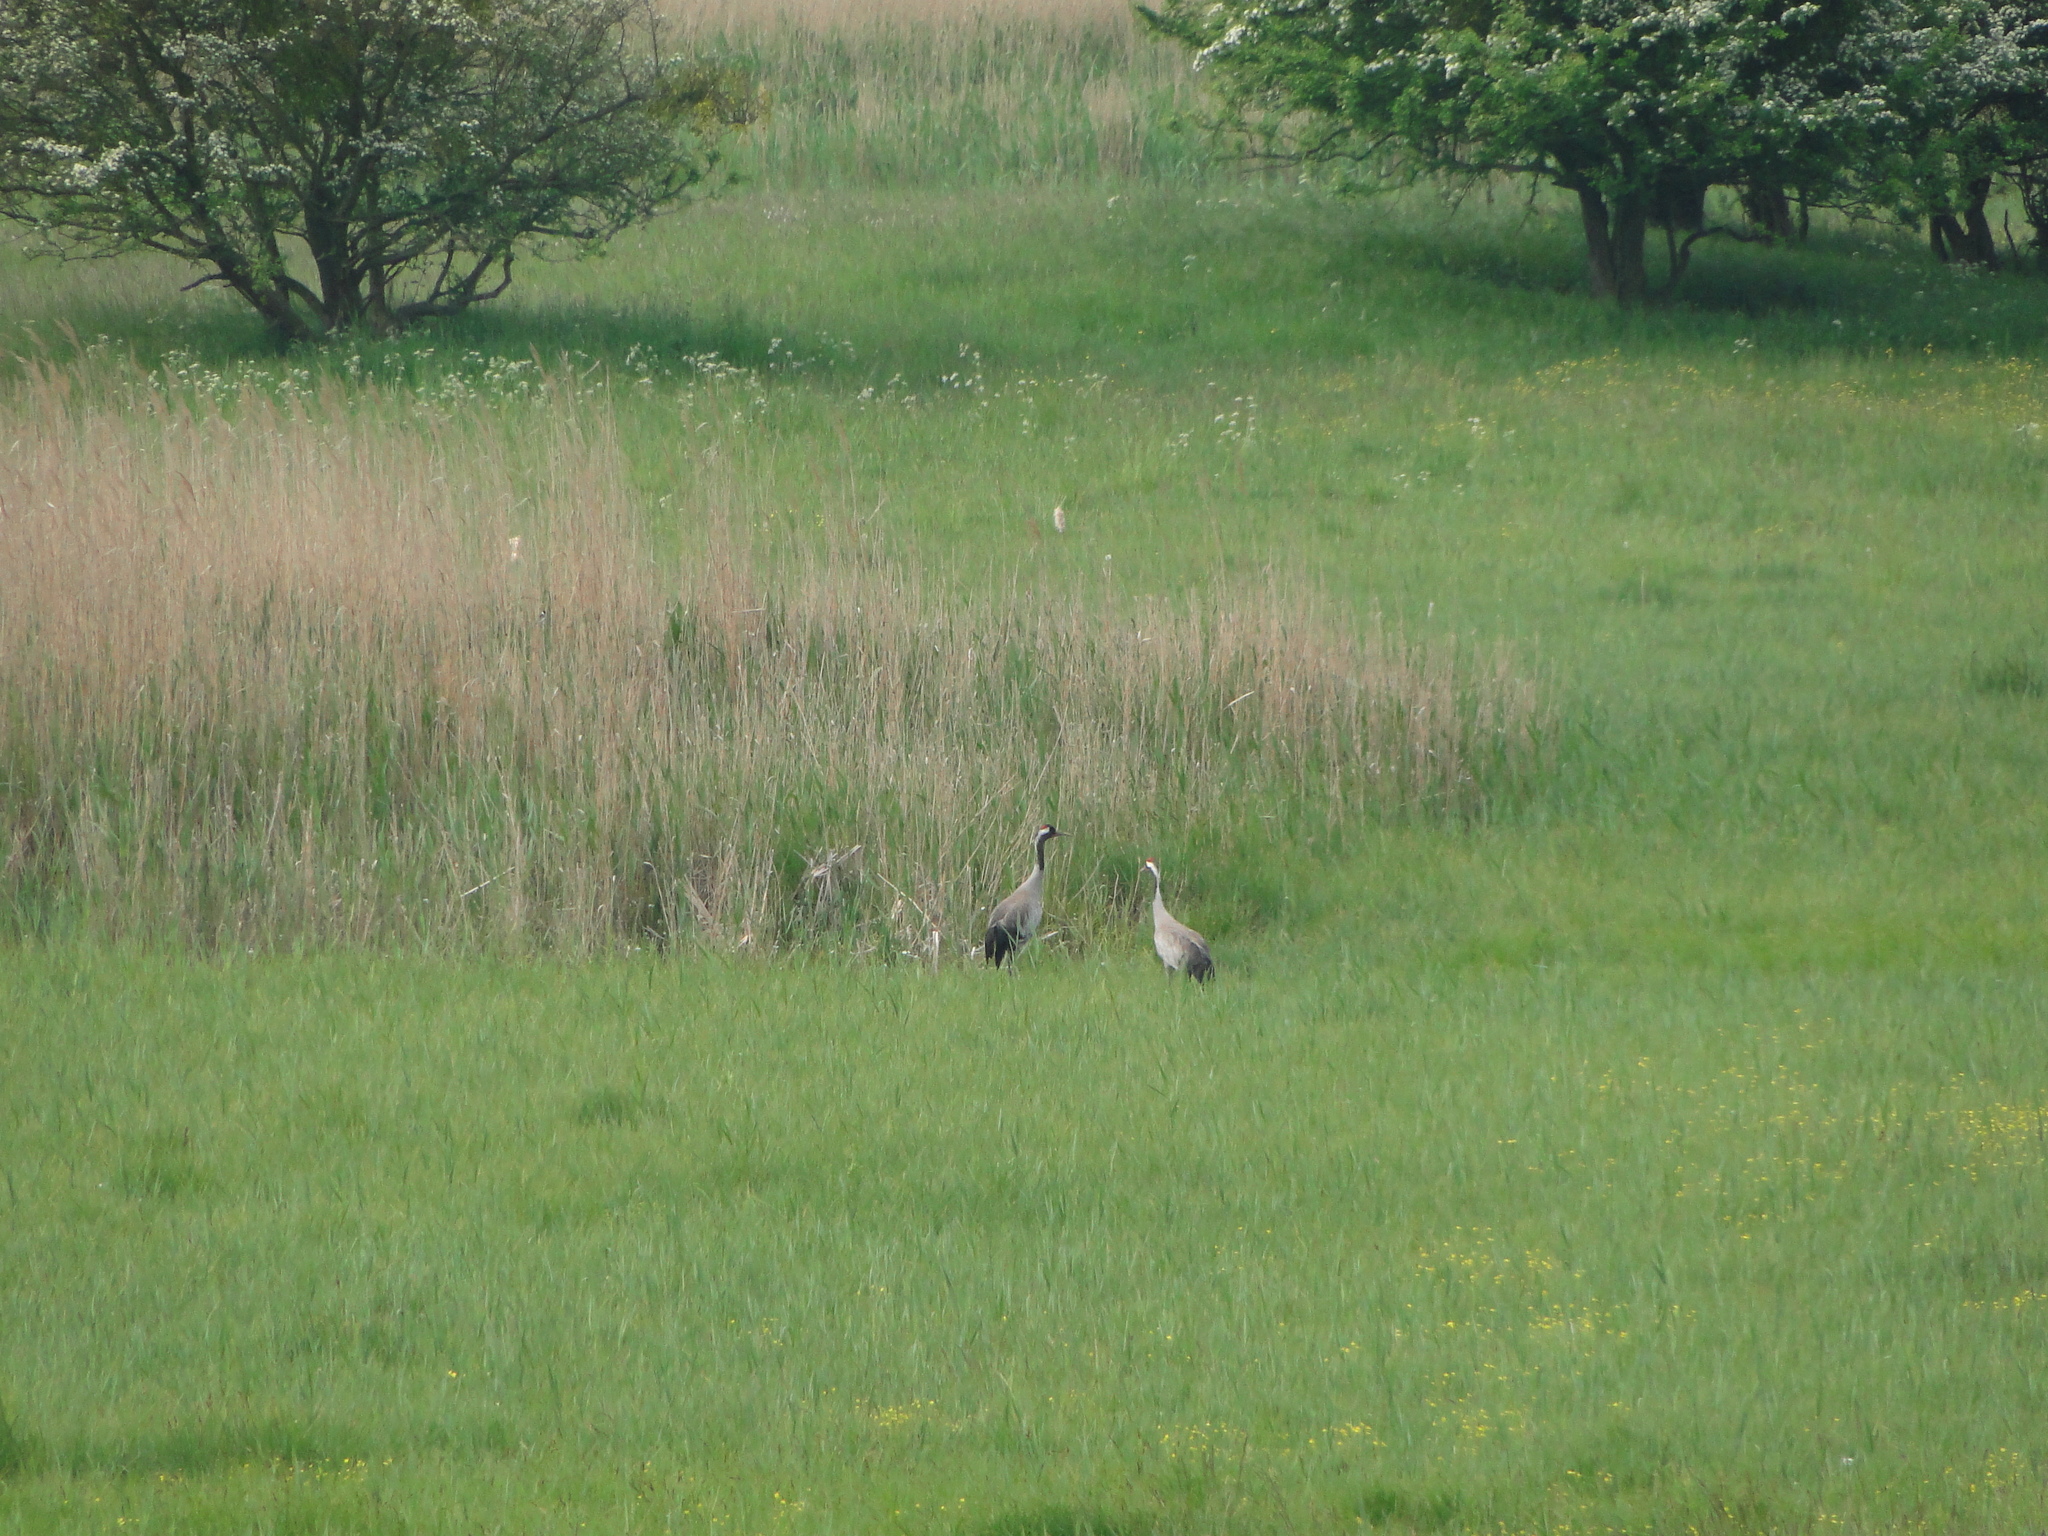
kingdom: Animalia
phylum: Chordata
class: Aves
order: Gruiformes
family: Gruidae
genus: Grus
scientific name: Grus grus
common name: Common crane
